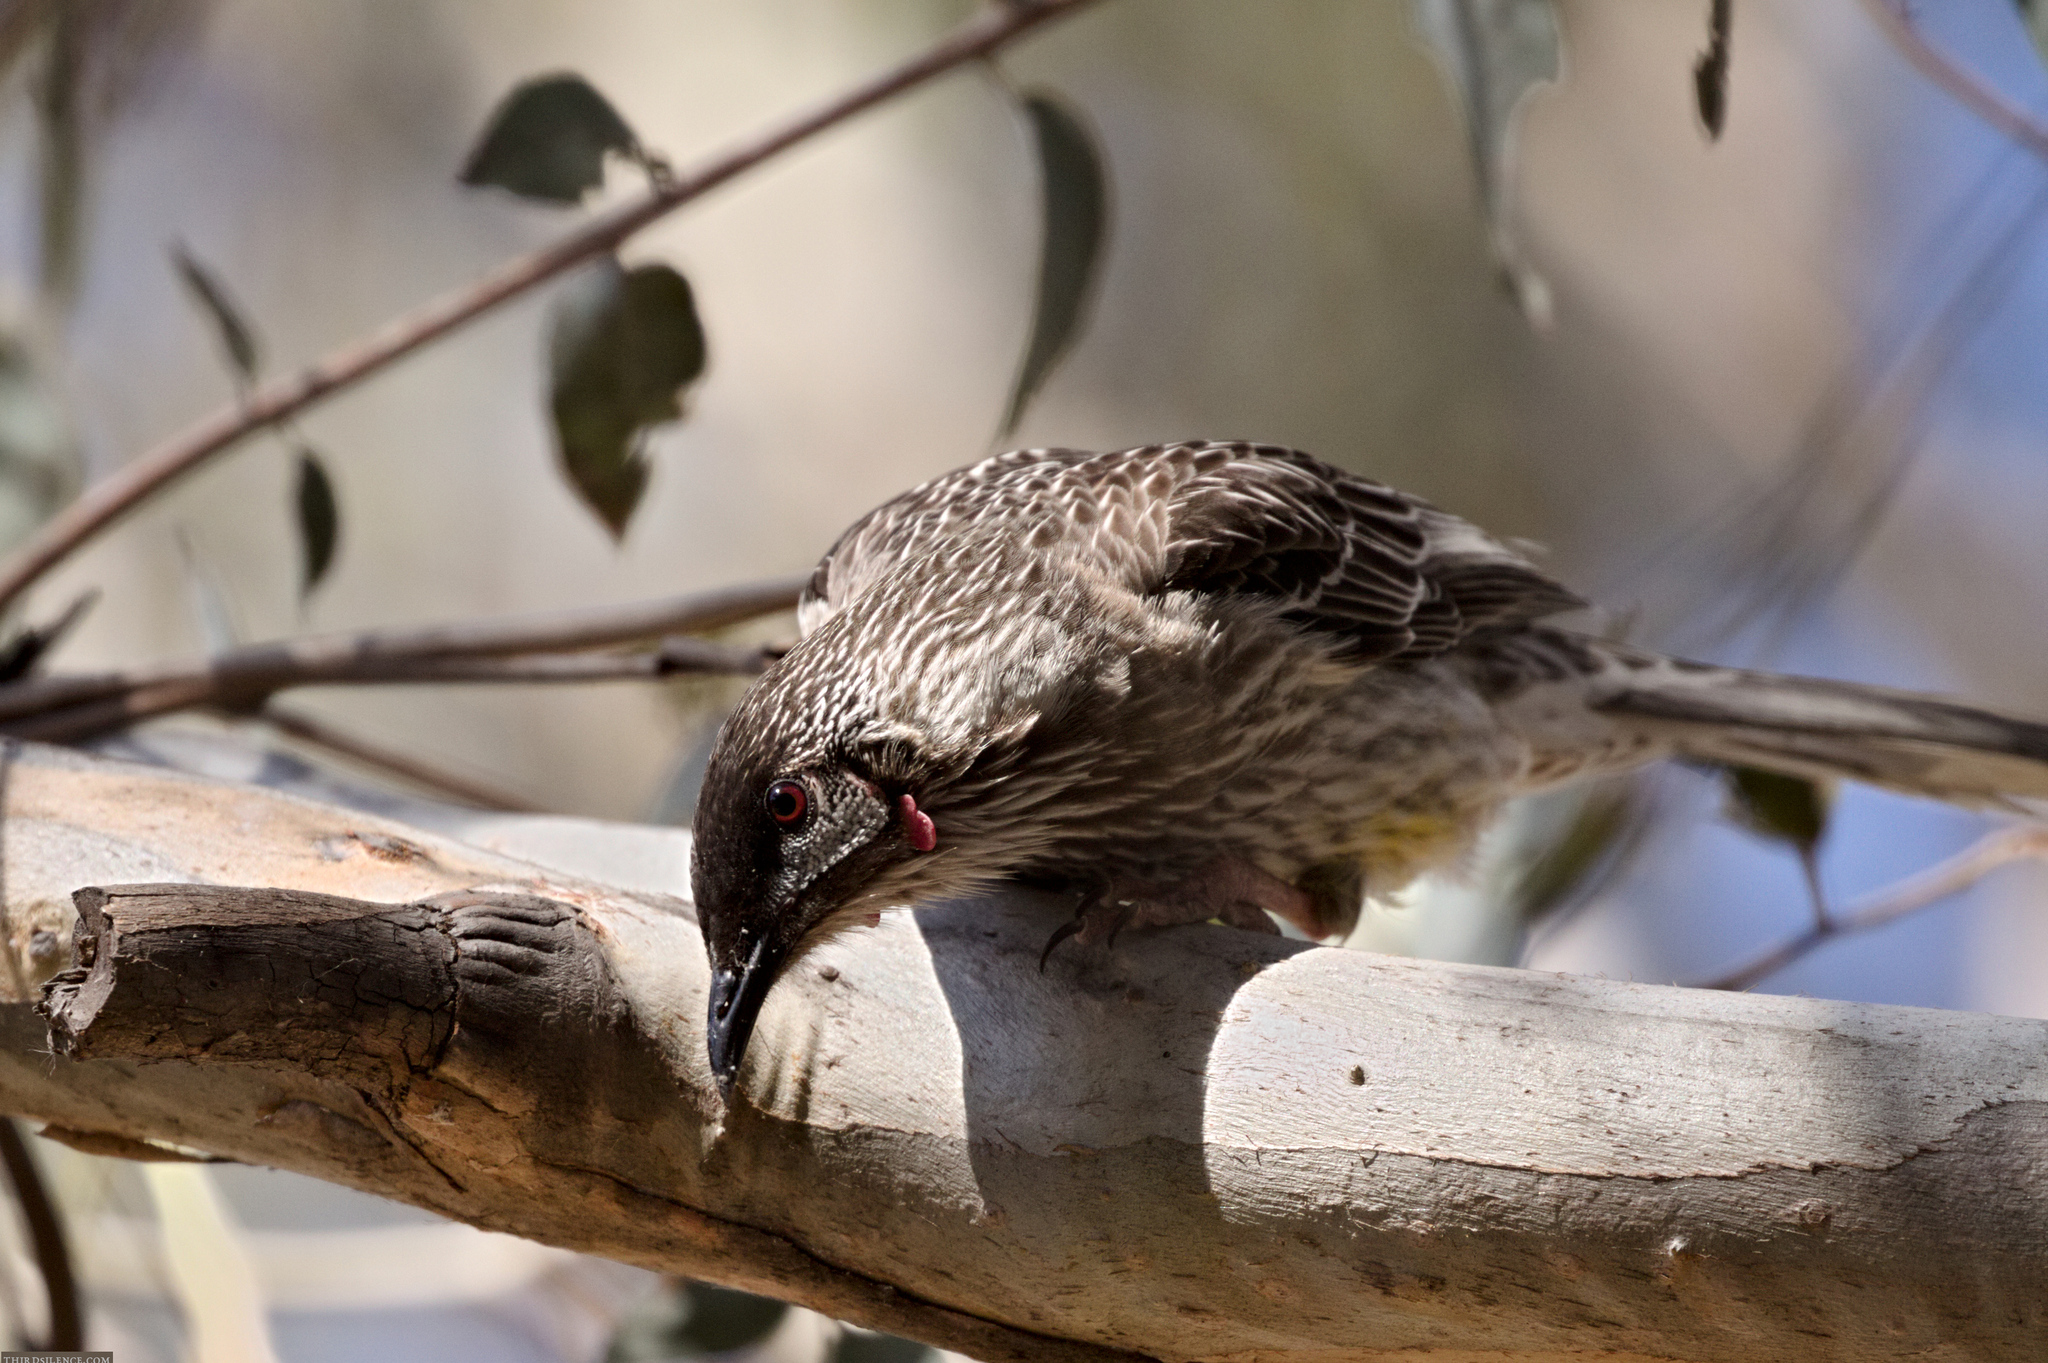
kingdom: Animalia
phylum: Chordata
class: Aves
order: Passeriformes
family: Meliphagidae
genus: Anthochaera
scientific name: Anthochaera carunculata
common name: Red wattlebird
